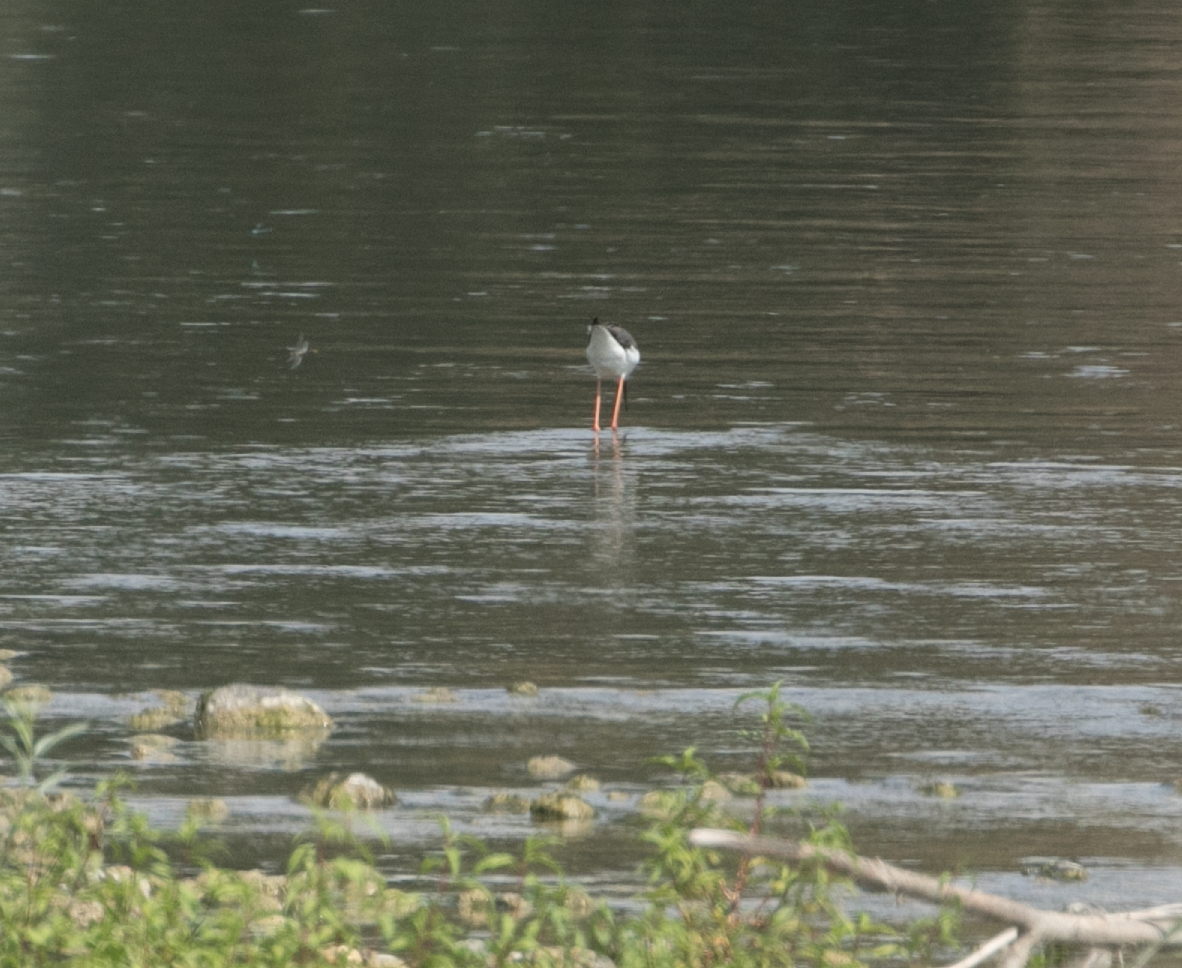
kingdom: Animalia
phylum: Chordata
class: Aves
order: Charadriiformes
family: Recurvirostridae
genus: Himantopus
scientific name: Himantopus himantopus
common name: Black-winged stilt
